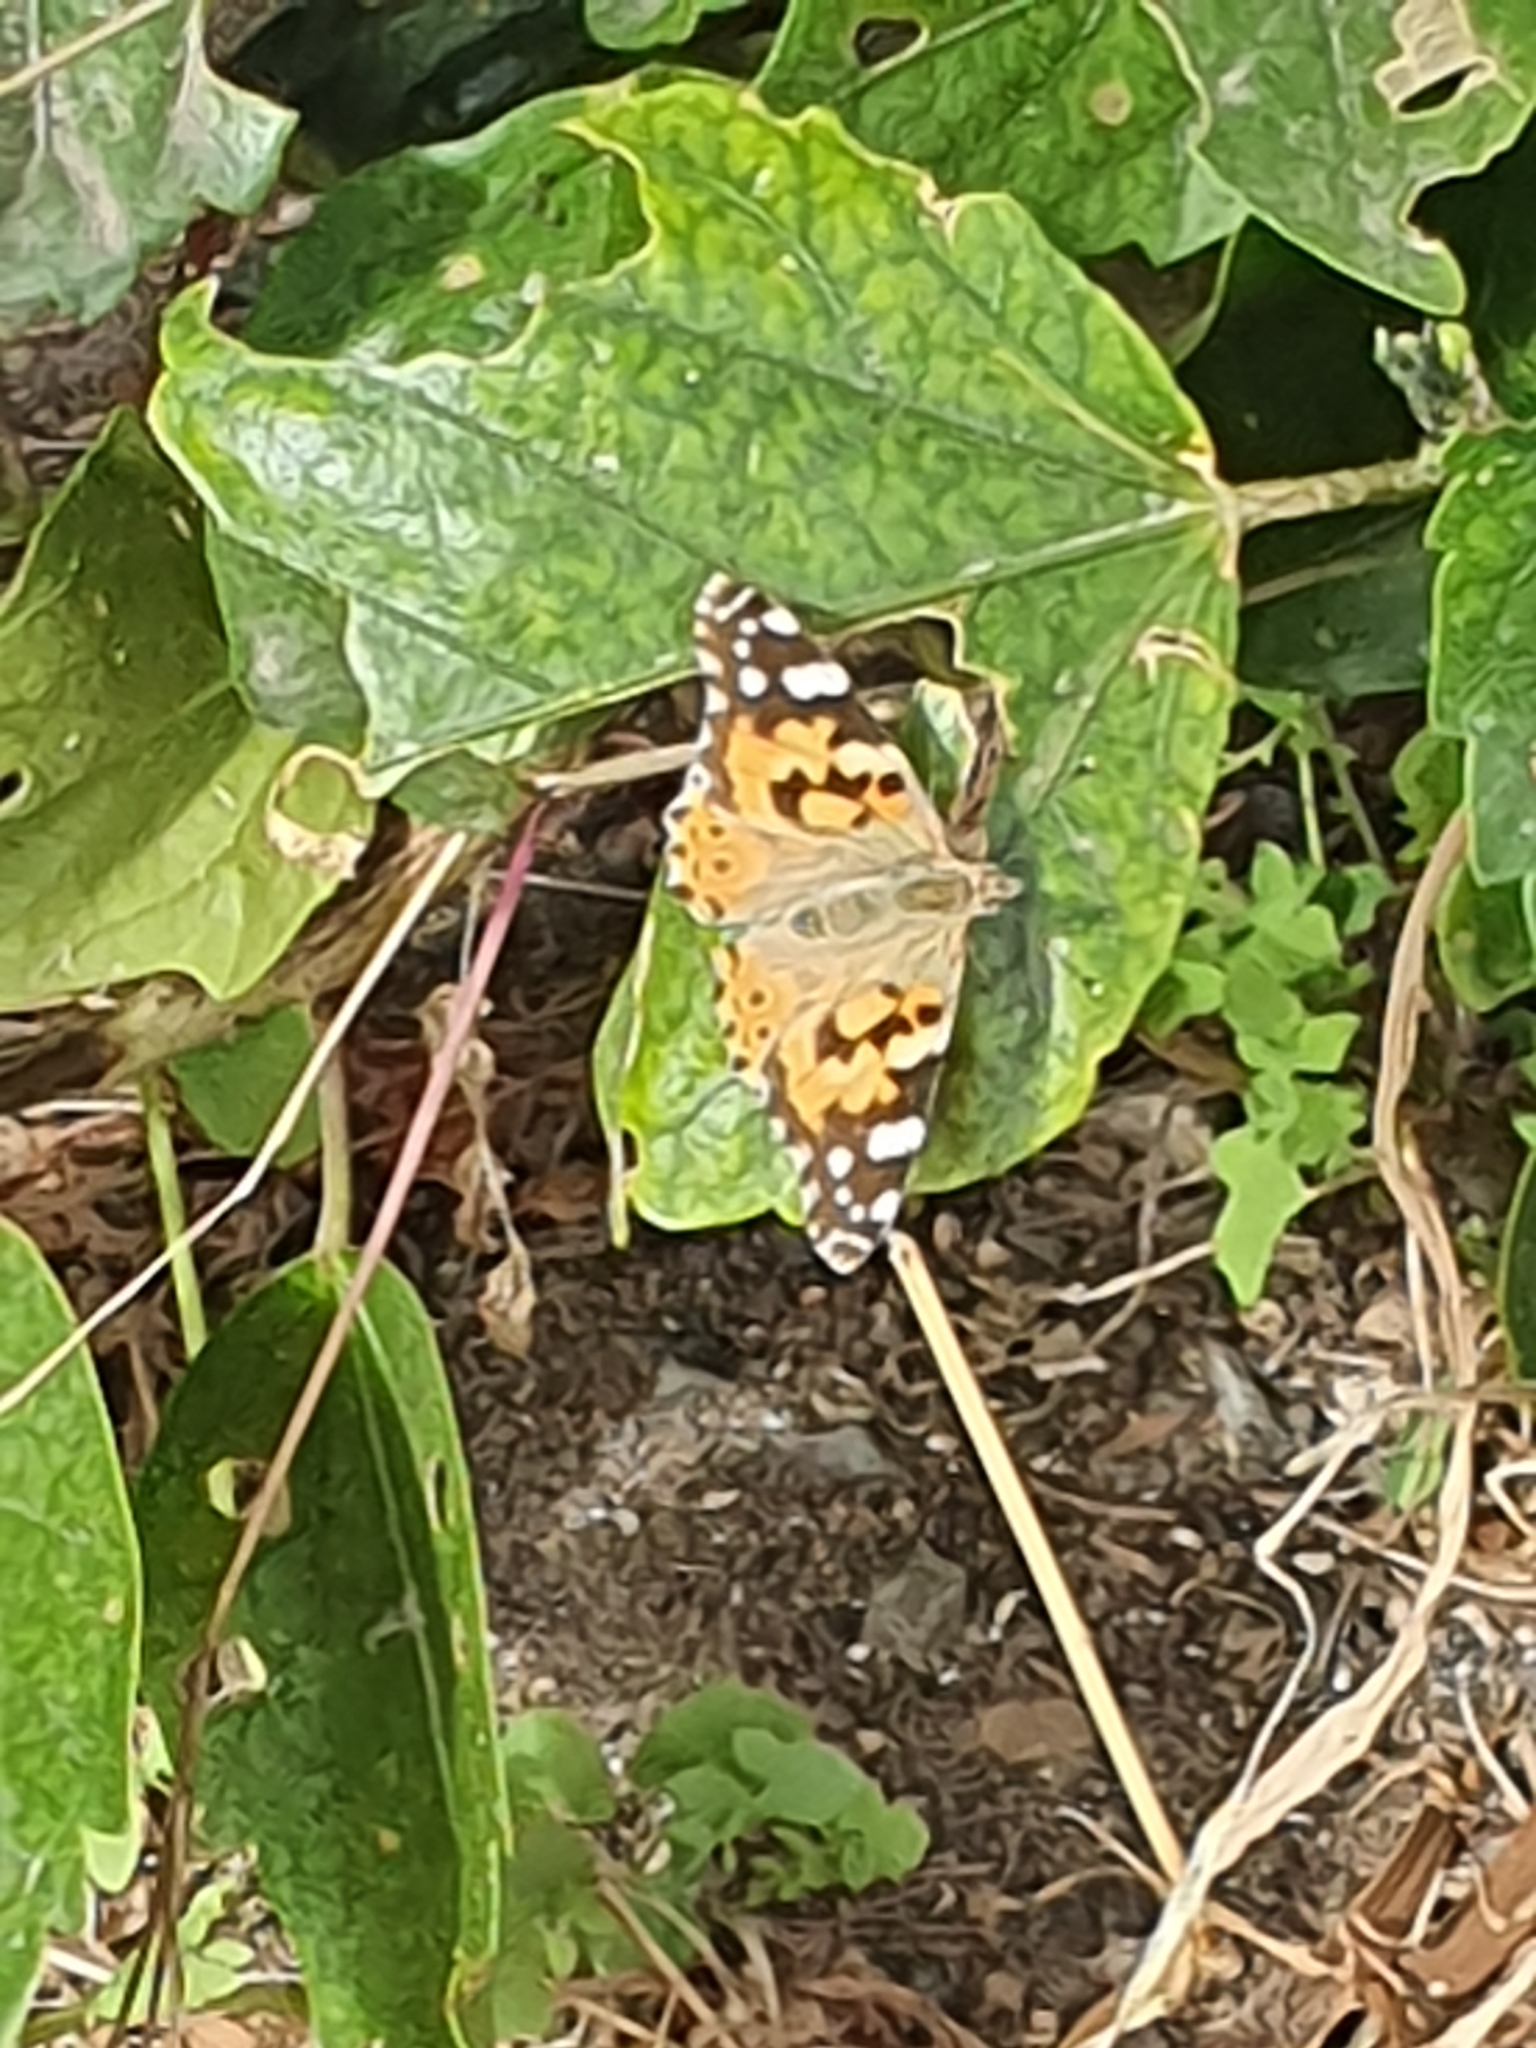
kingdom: Animalia
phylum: Arthropoda
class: Insecta
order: Lepidoptera
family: Nymphalidae
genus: Vanessa
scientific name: Vanessa cardui
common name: Painted lady
